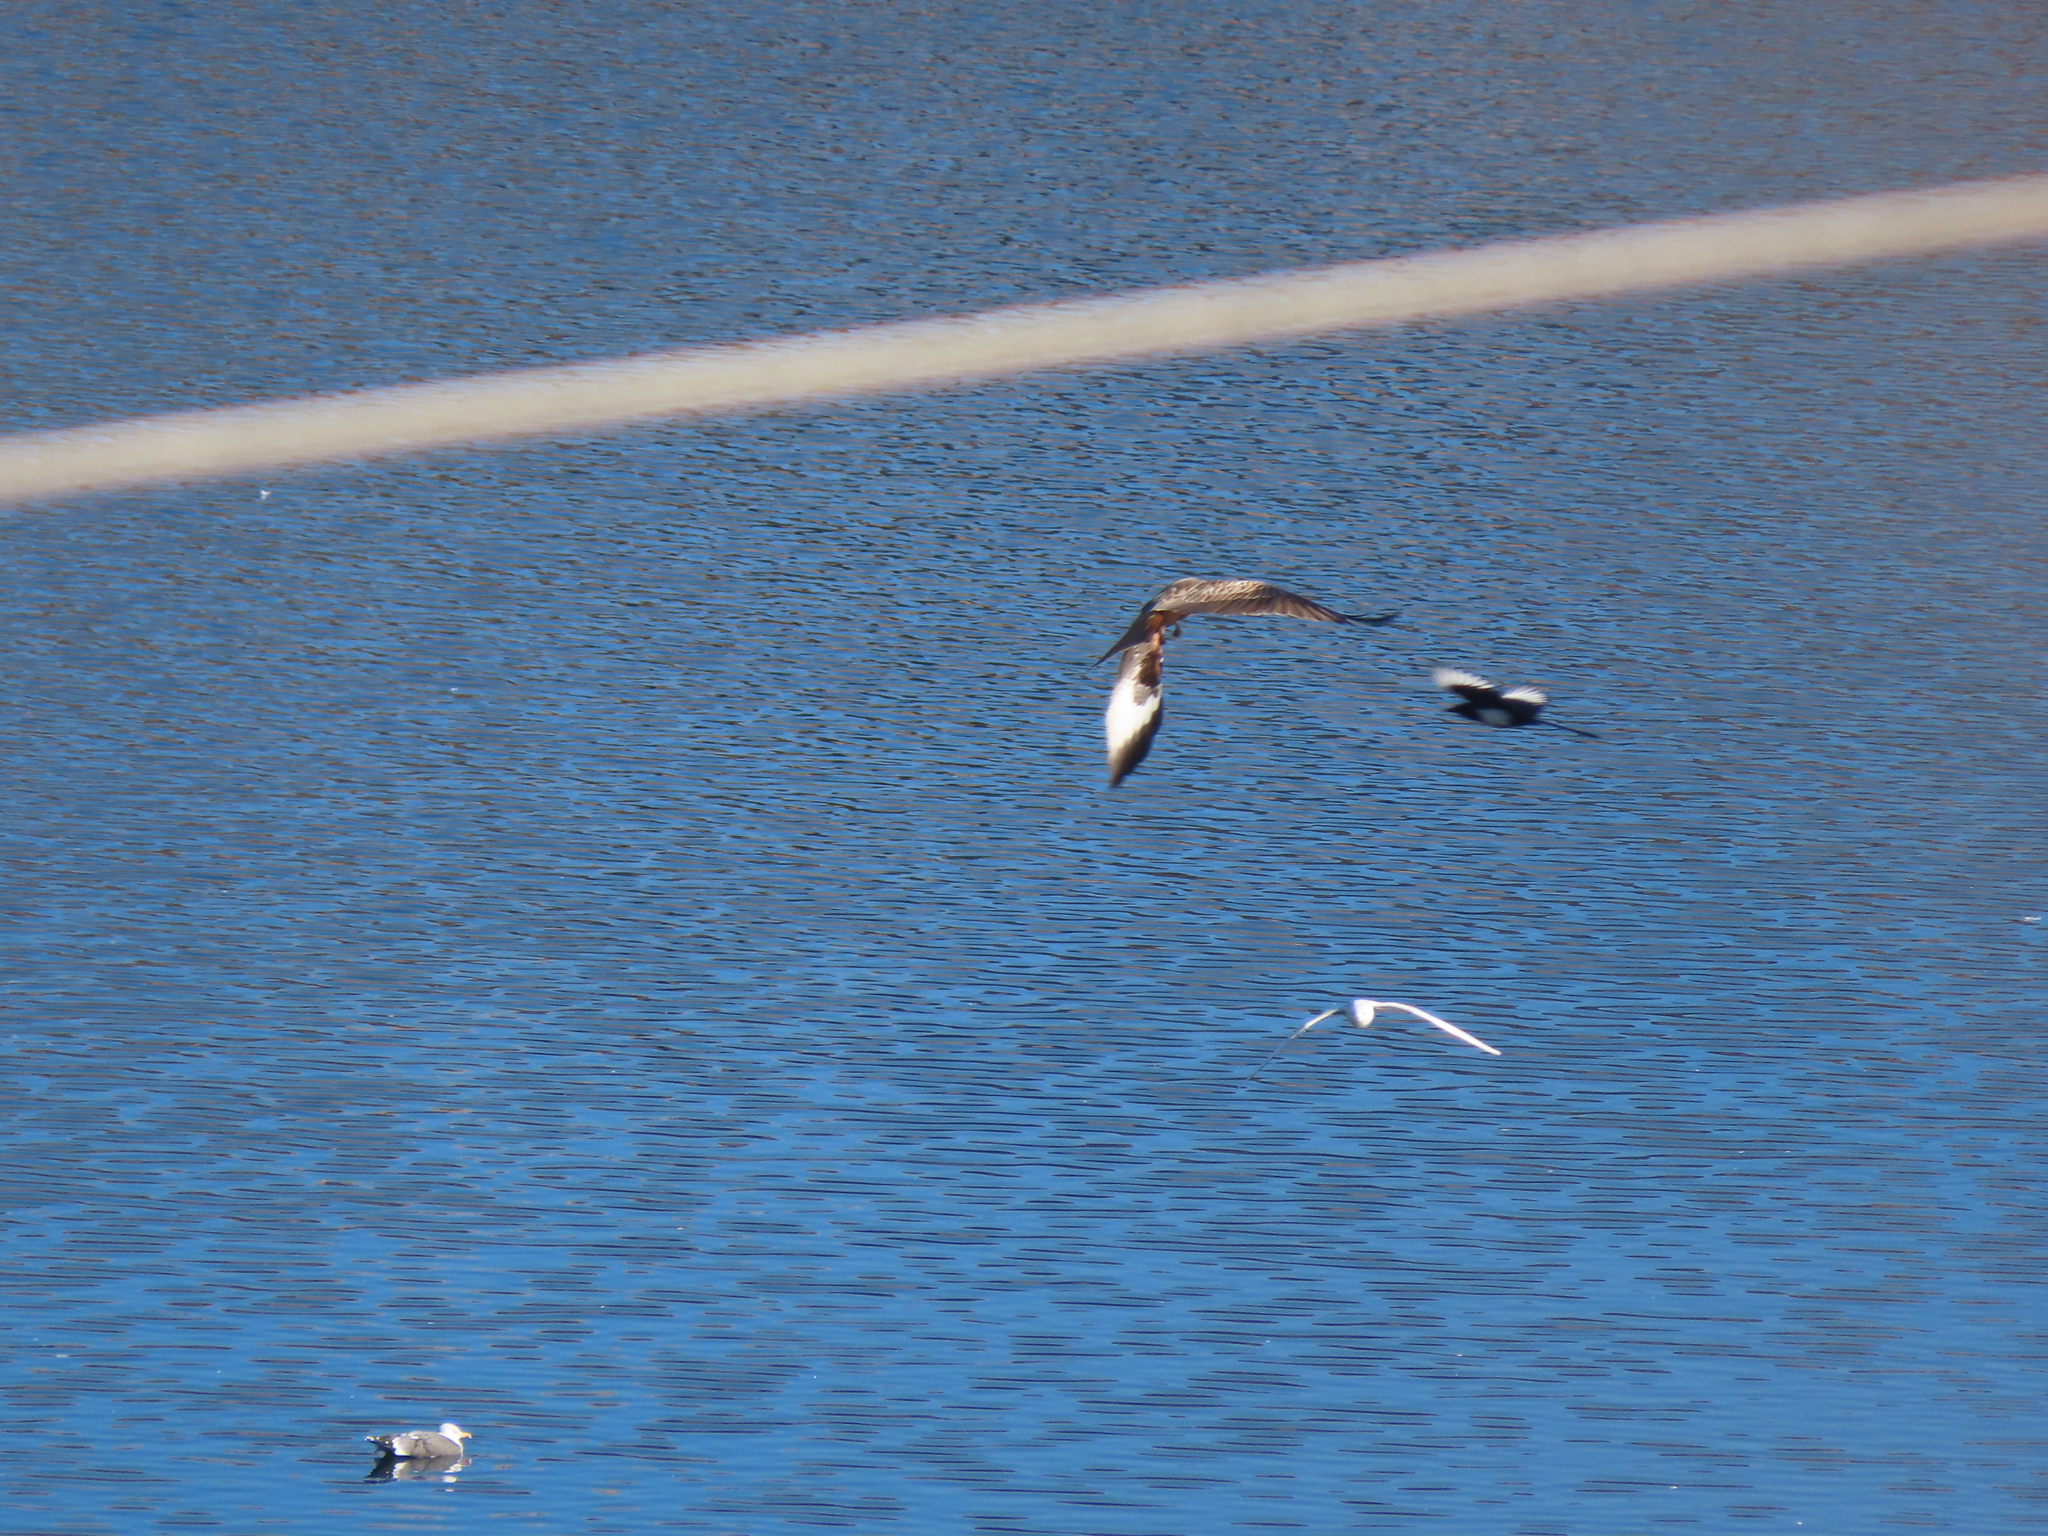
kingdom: Animalia
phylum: Chordata
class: Aves
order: Accipitriformes
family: Accipitridae
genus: Milvus
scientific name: Milvus milvus
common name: Red kite
